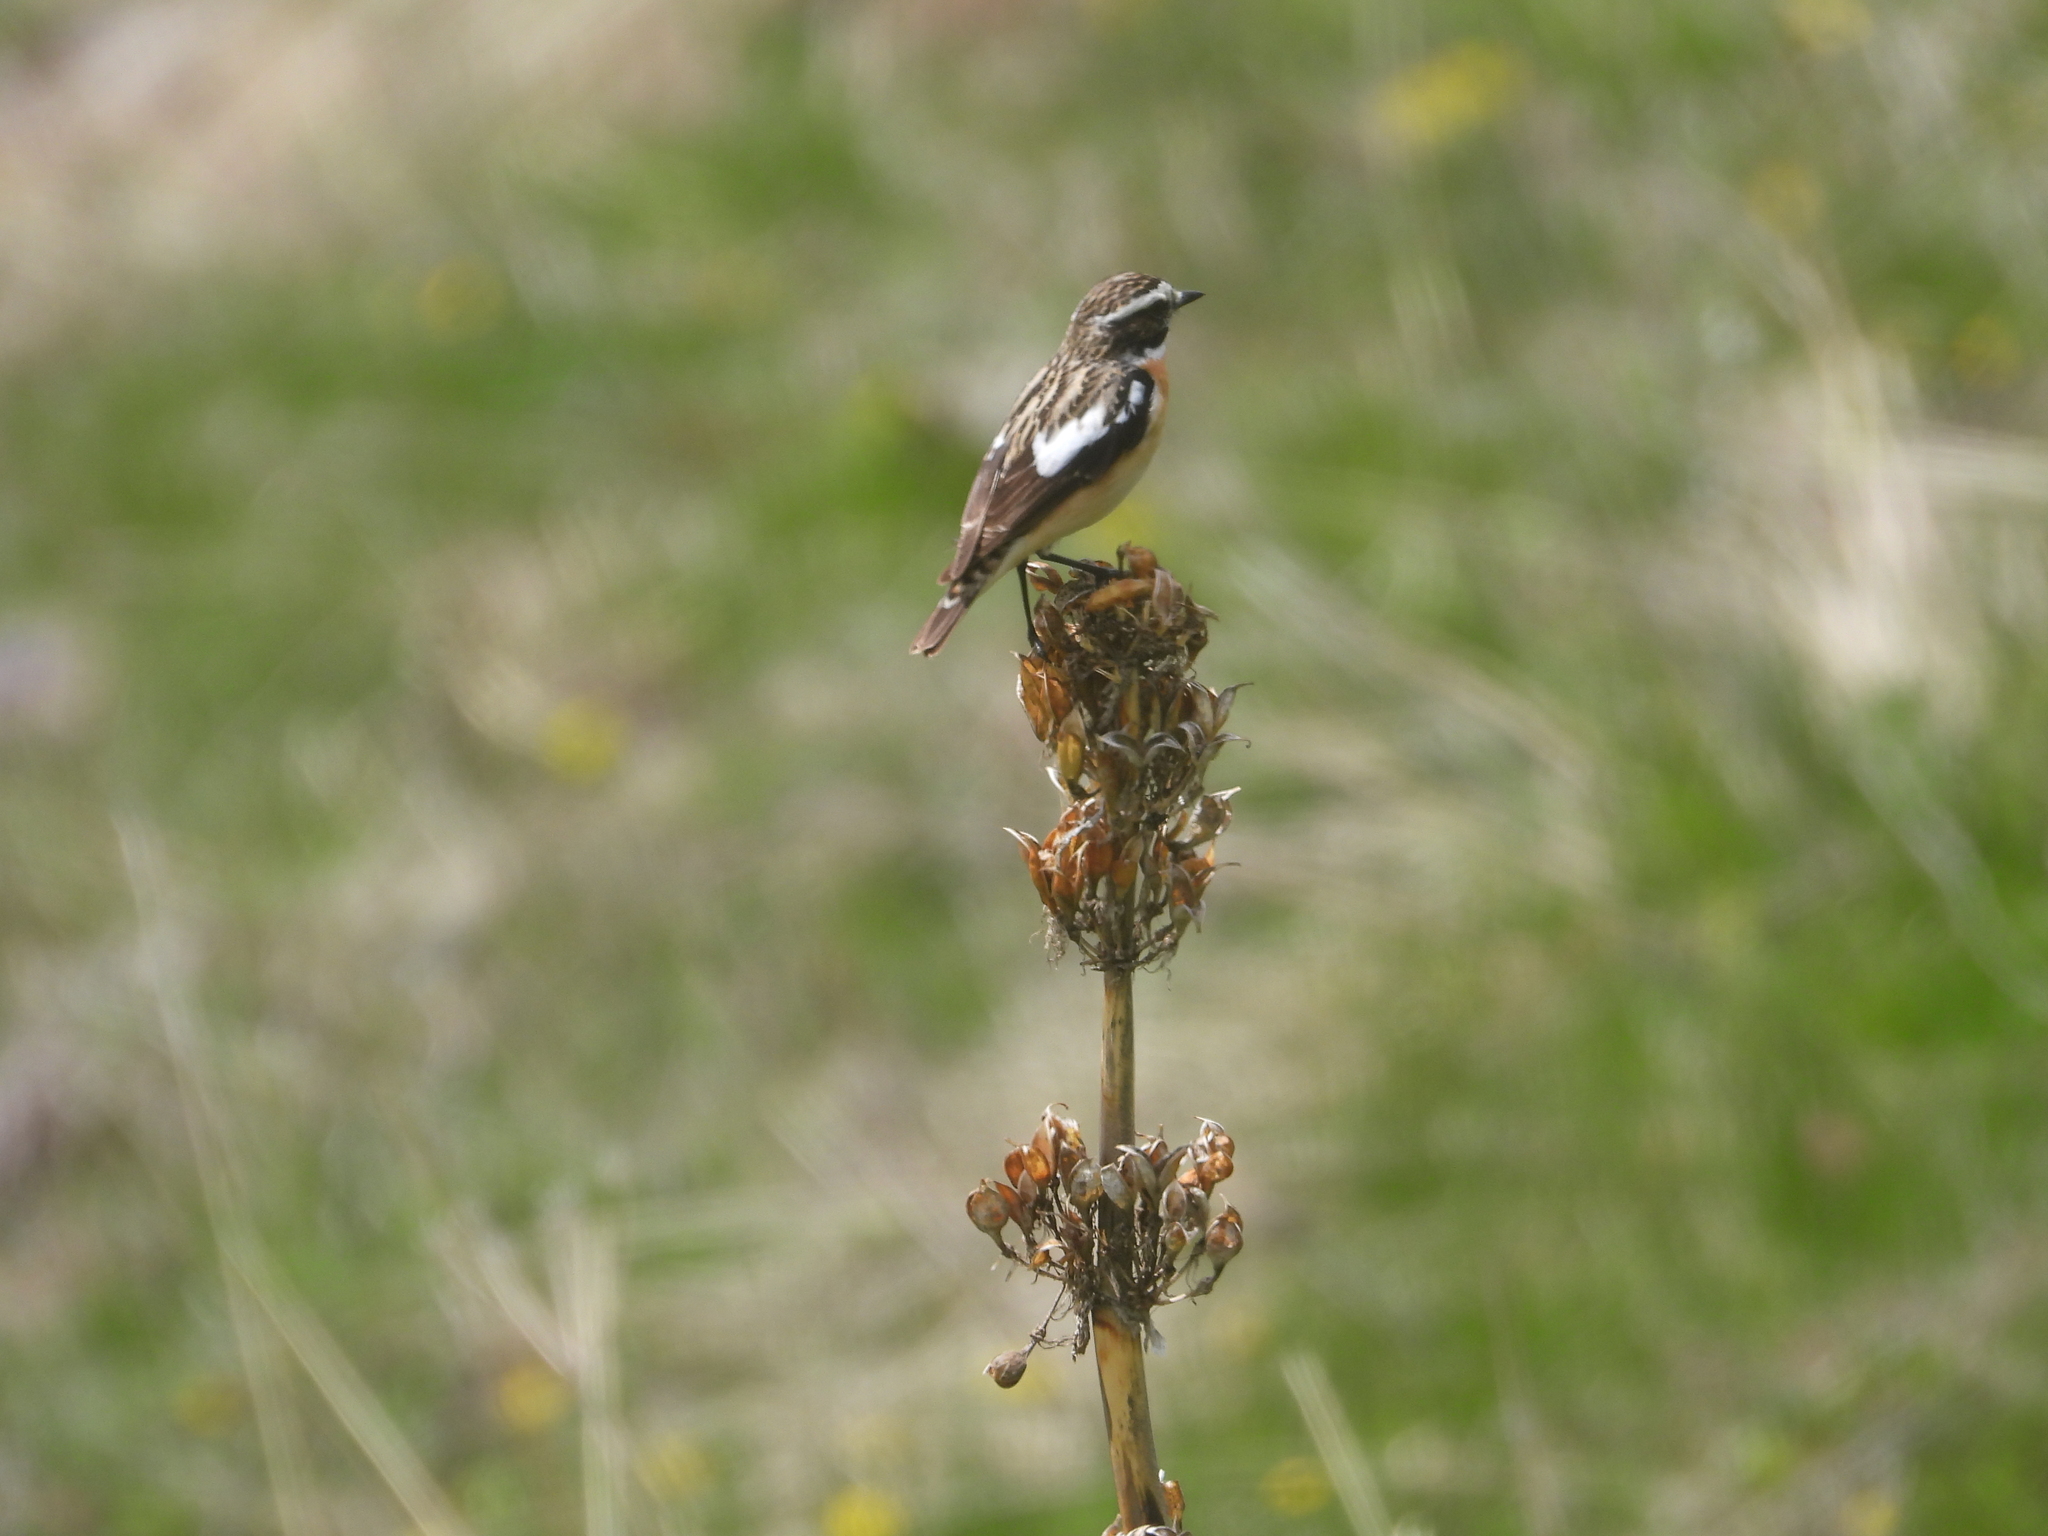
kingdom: Animalia
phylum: Chordata
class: Aves
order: Passeriformes
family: Muscicapidae
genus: Saxicola
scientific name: Saxicola rubetra
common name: Whinchat
